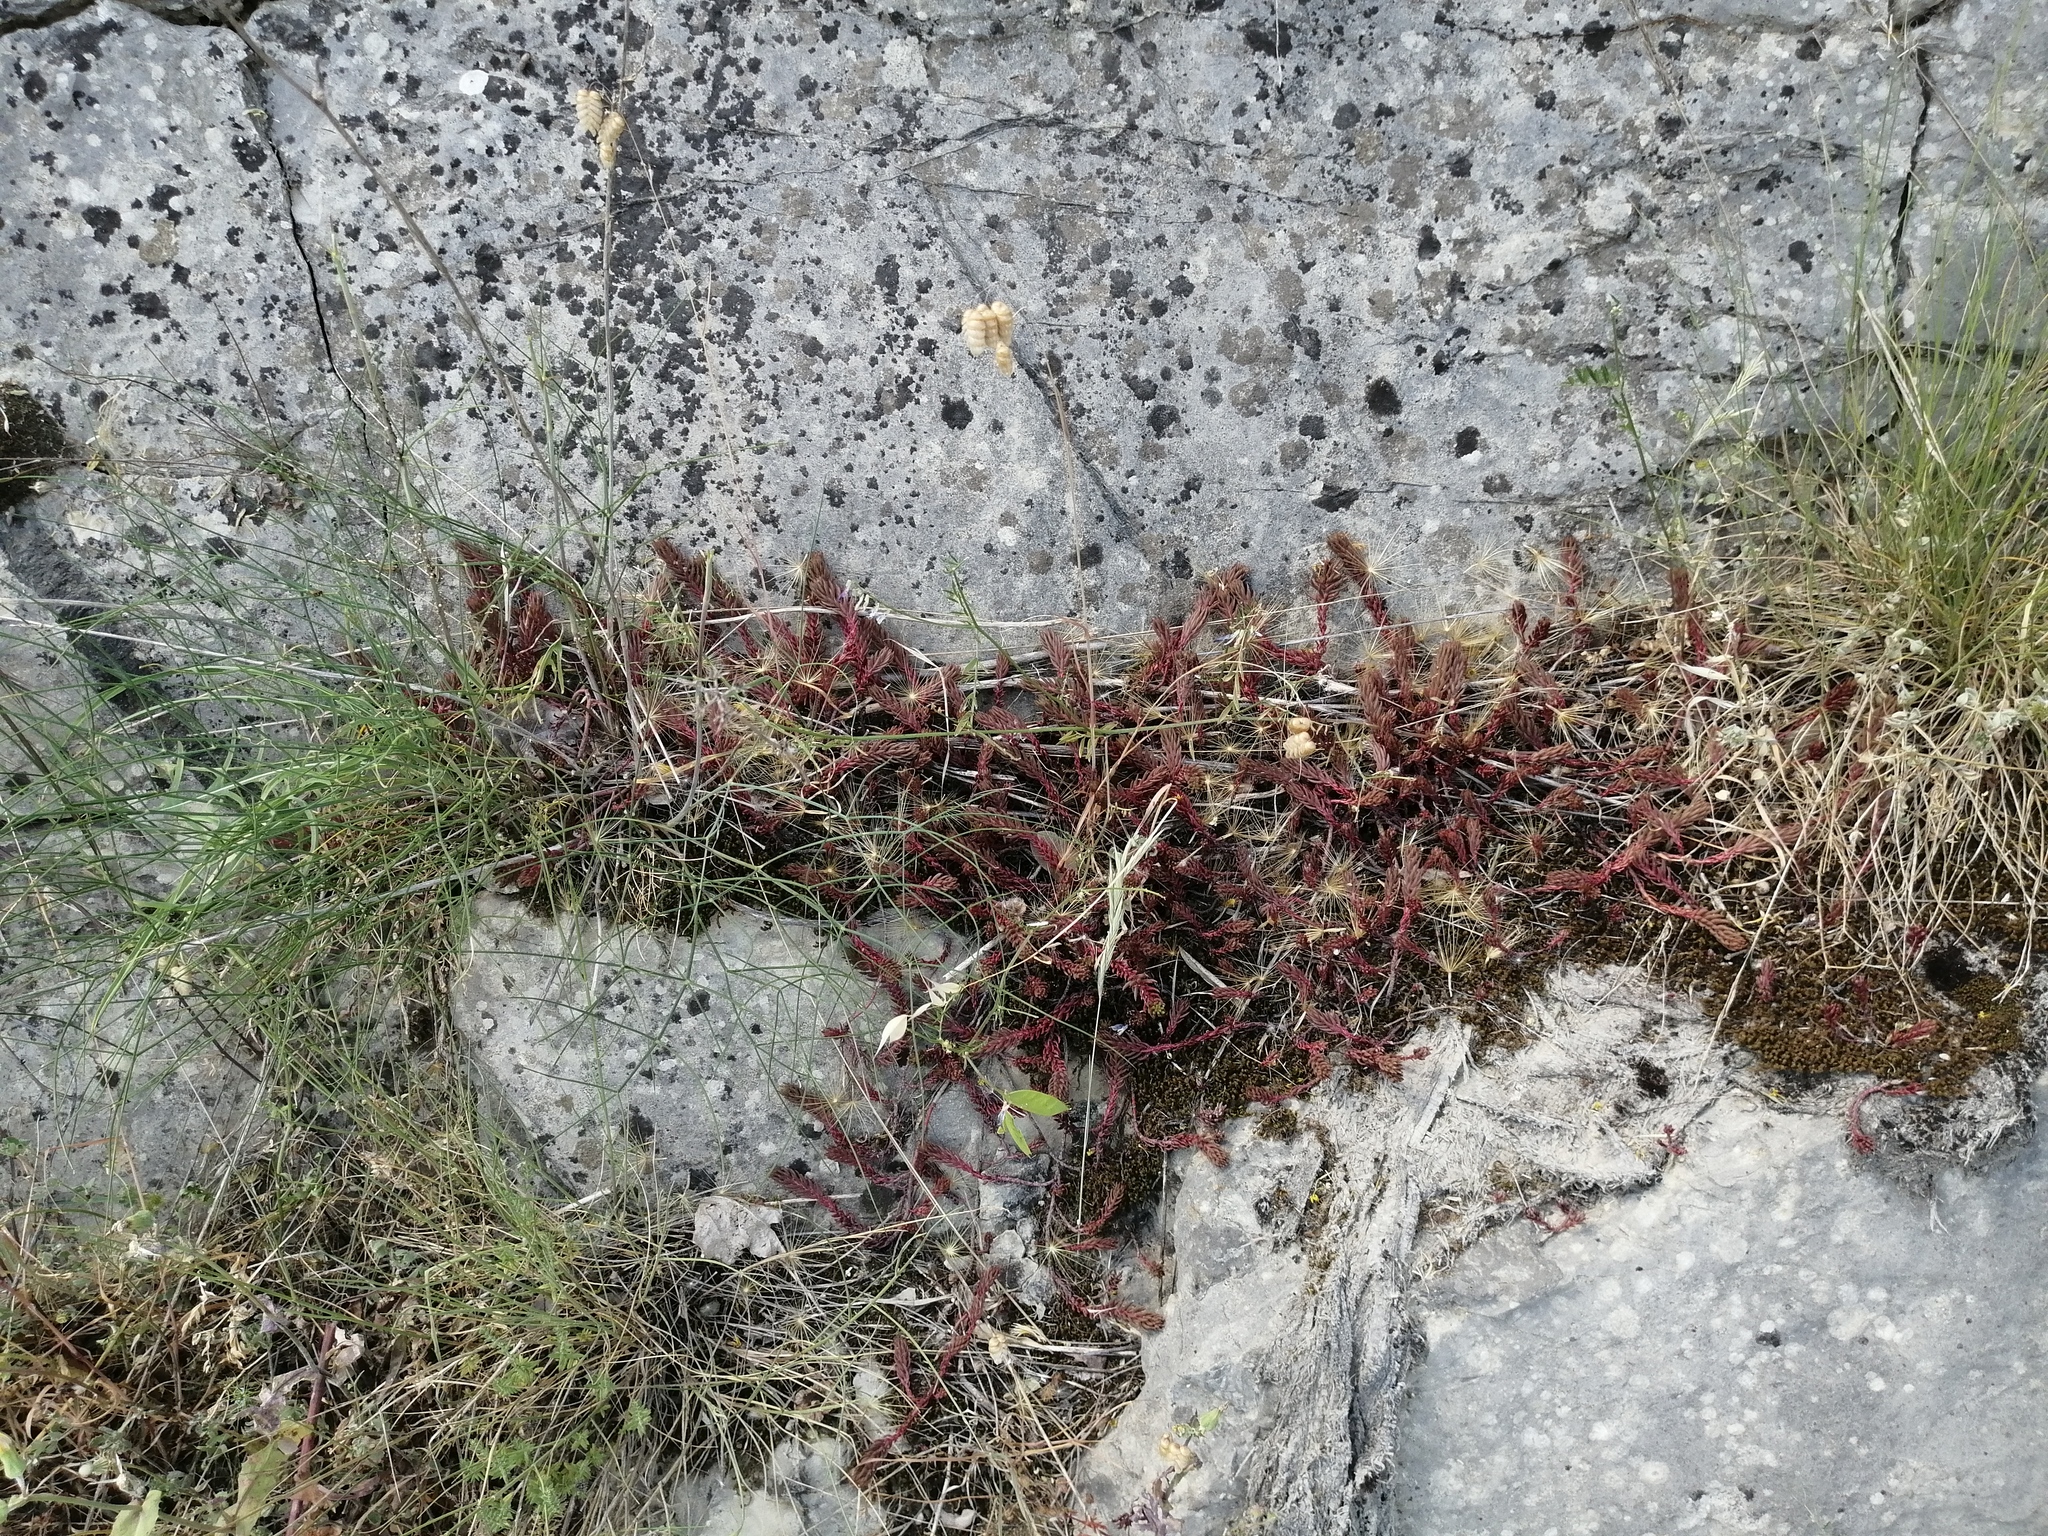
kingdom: Plantae
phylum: Tracheophyta
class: Magnoliopsida
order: Saxifragales
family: Crassulaceae
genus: Petrosedum
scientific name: Petrosedum ochroleucum
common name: European stonecrop
